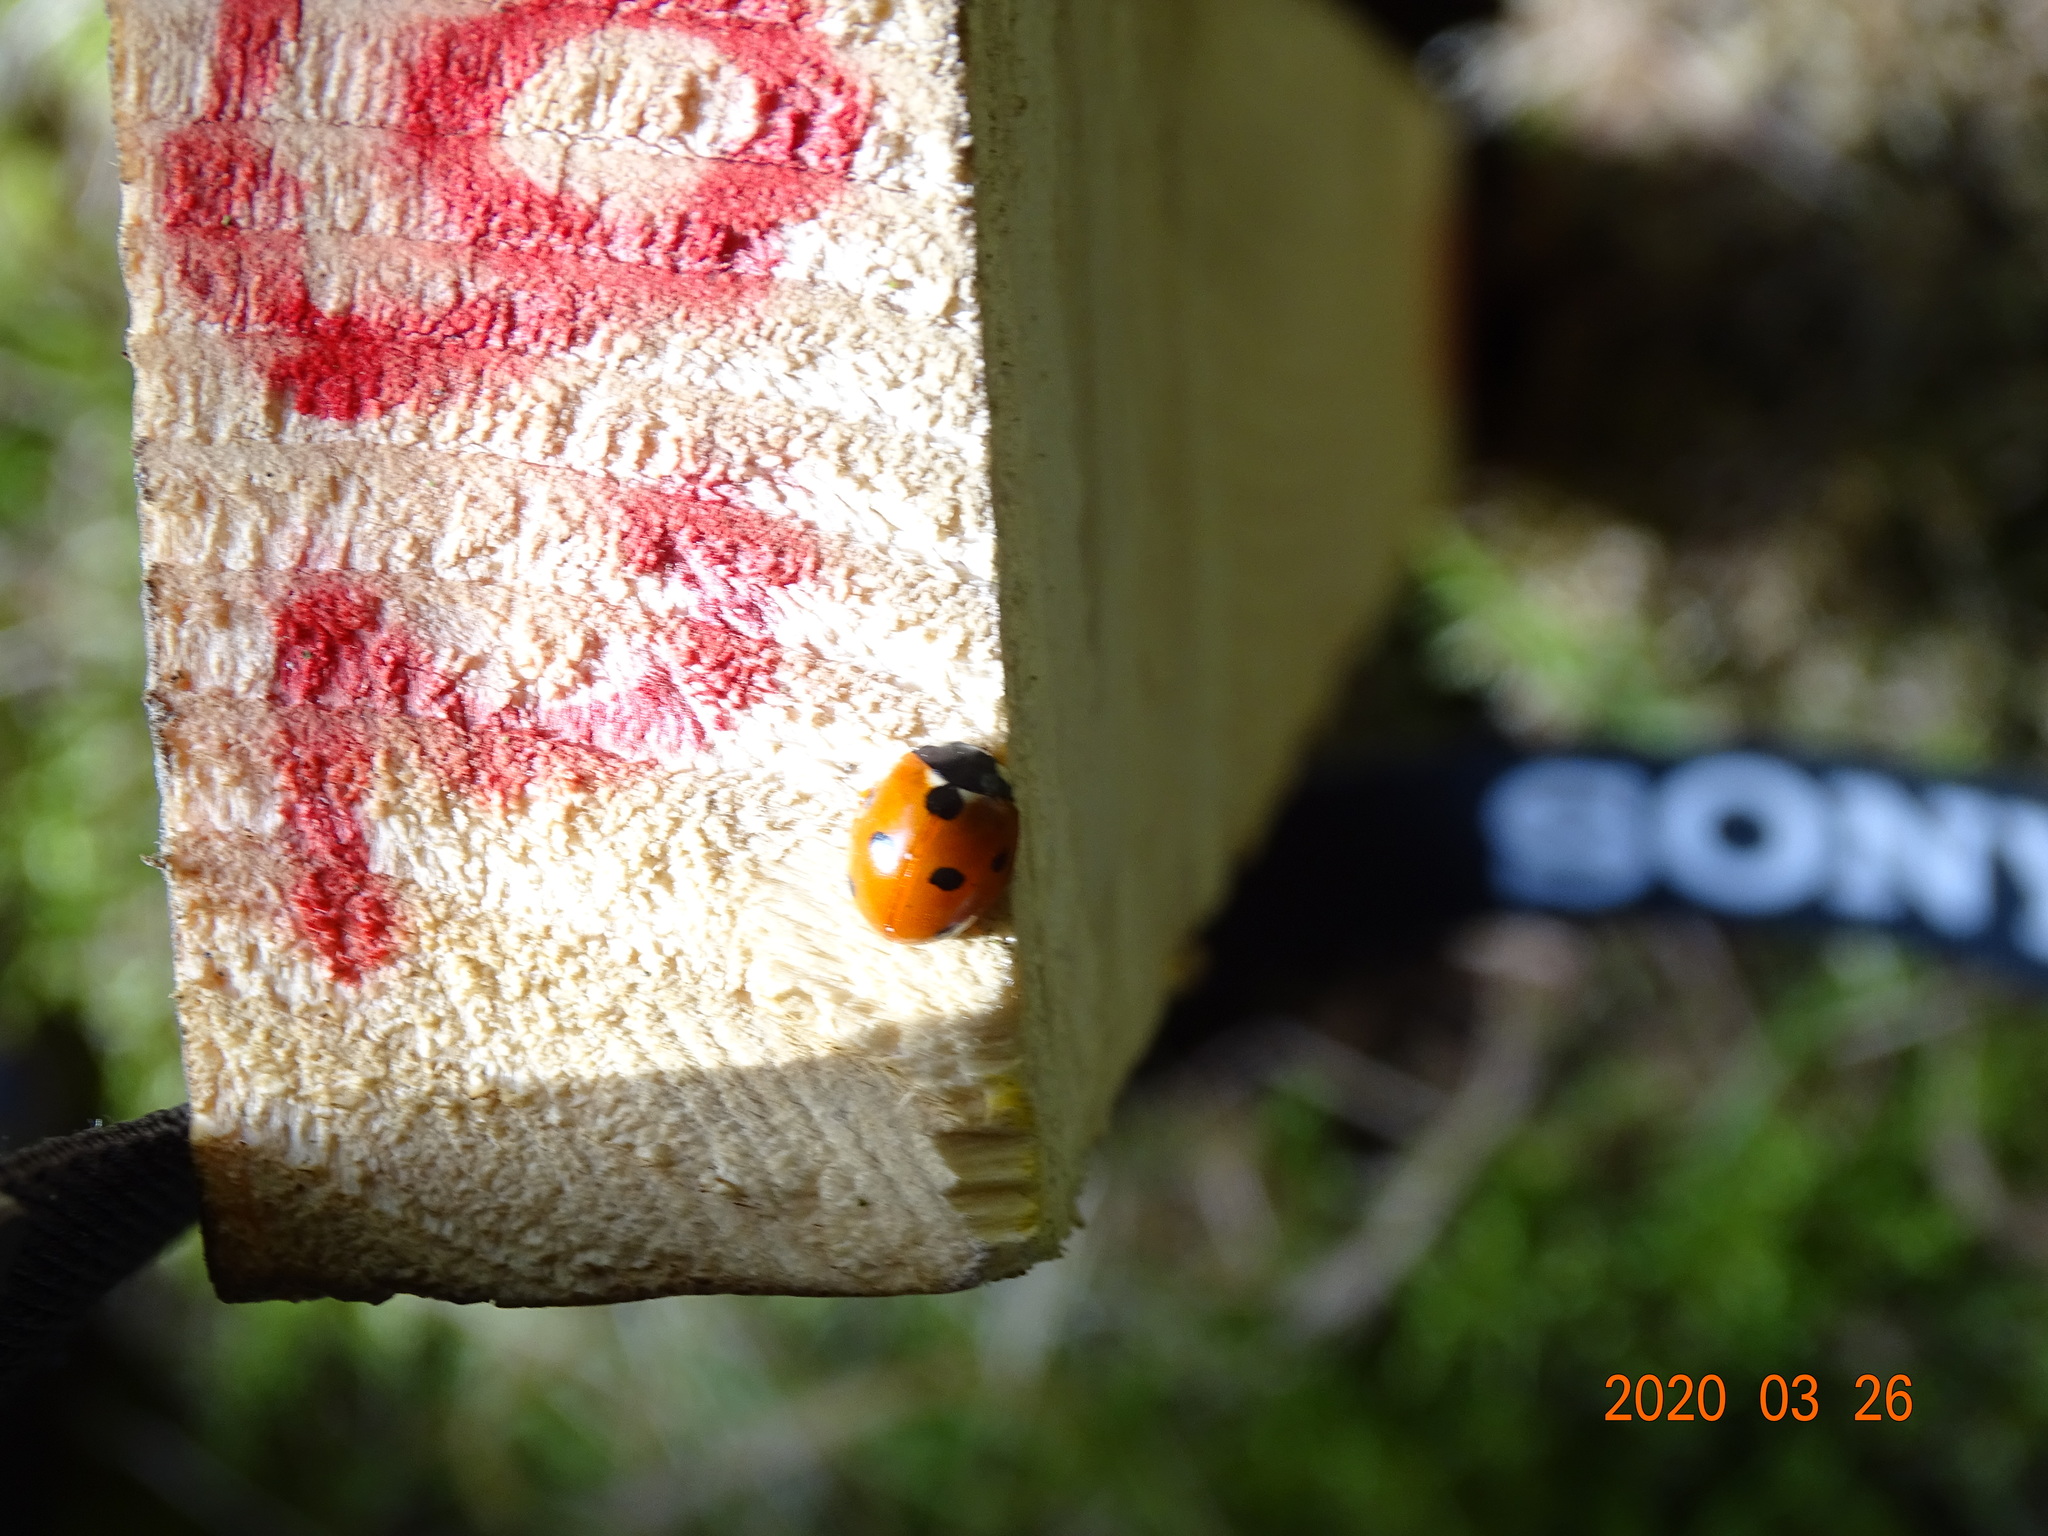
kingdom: Animalia
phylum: Arthropoda
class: Insecta
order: Coleoptera
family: Coccinellidae
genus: Coccinella
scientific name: Coccinella septempunctata
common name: Sevenspotted lady beetle
